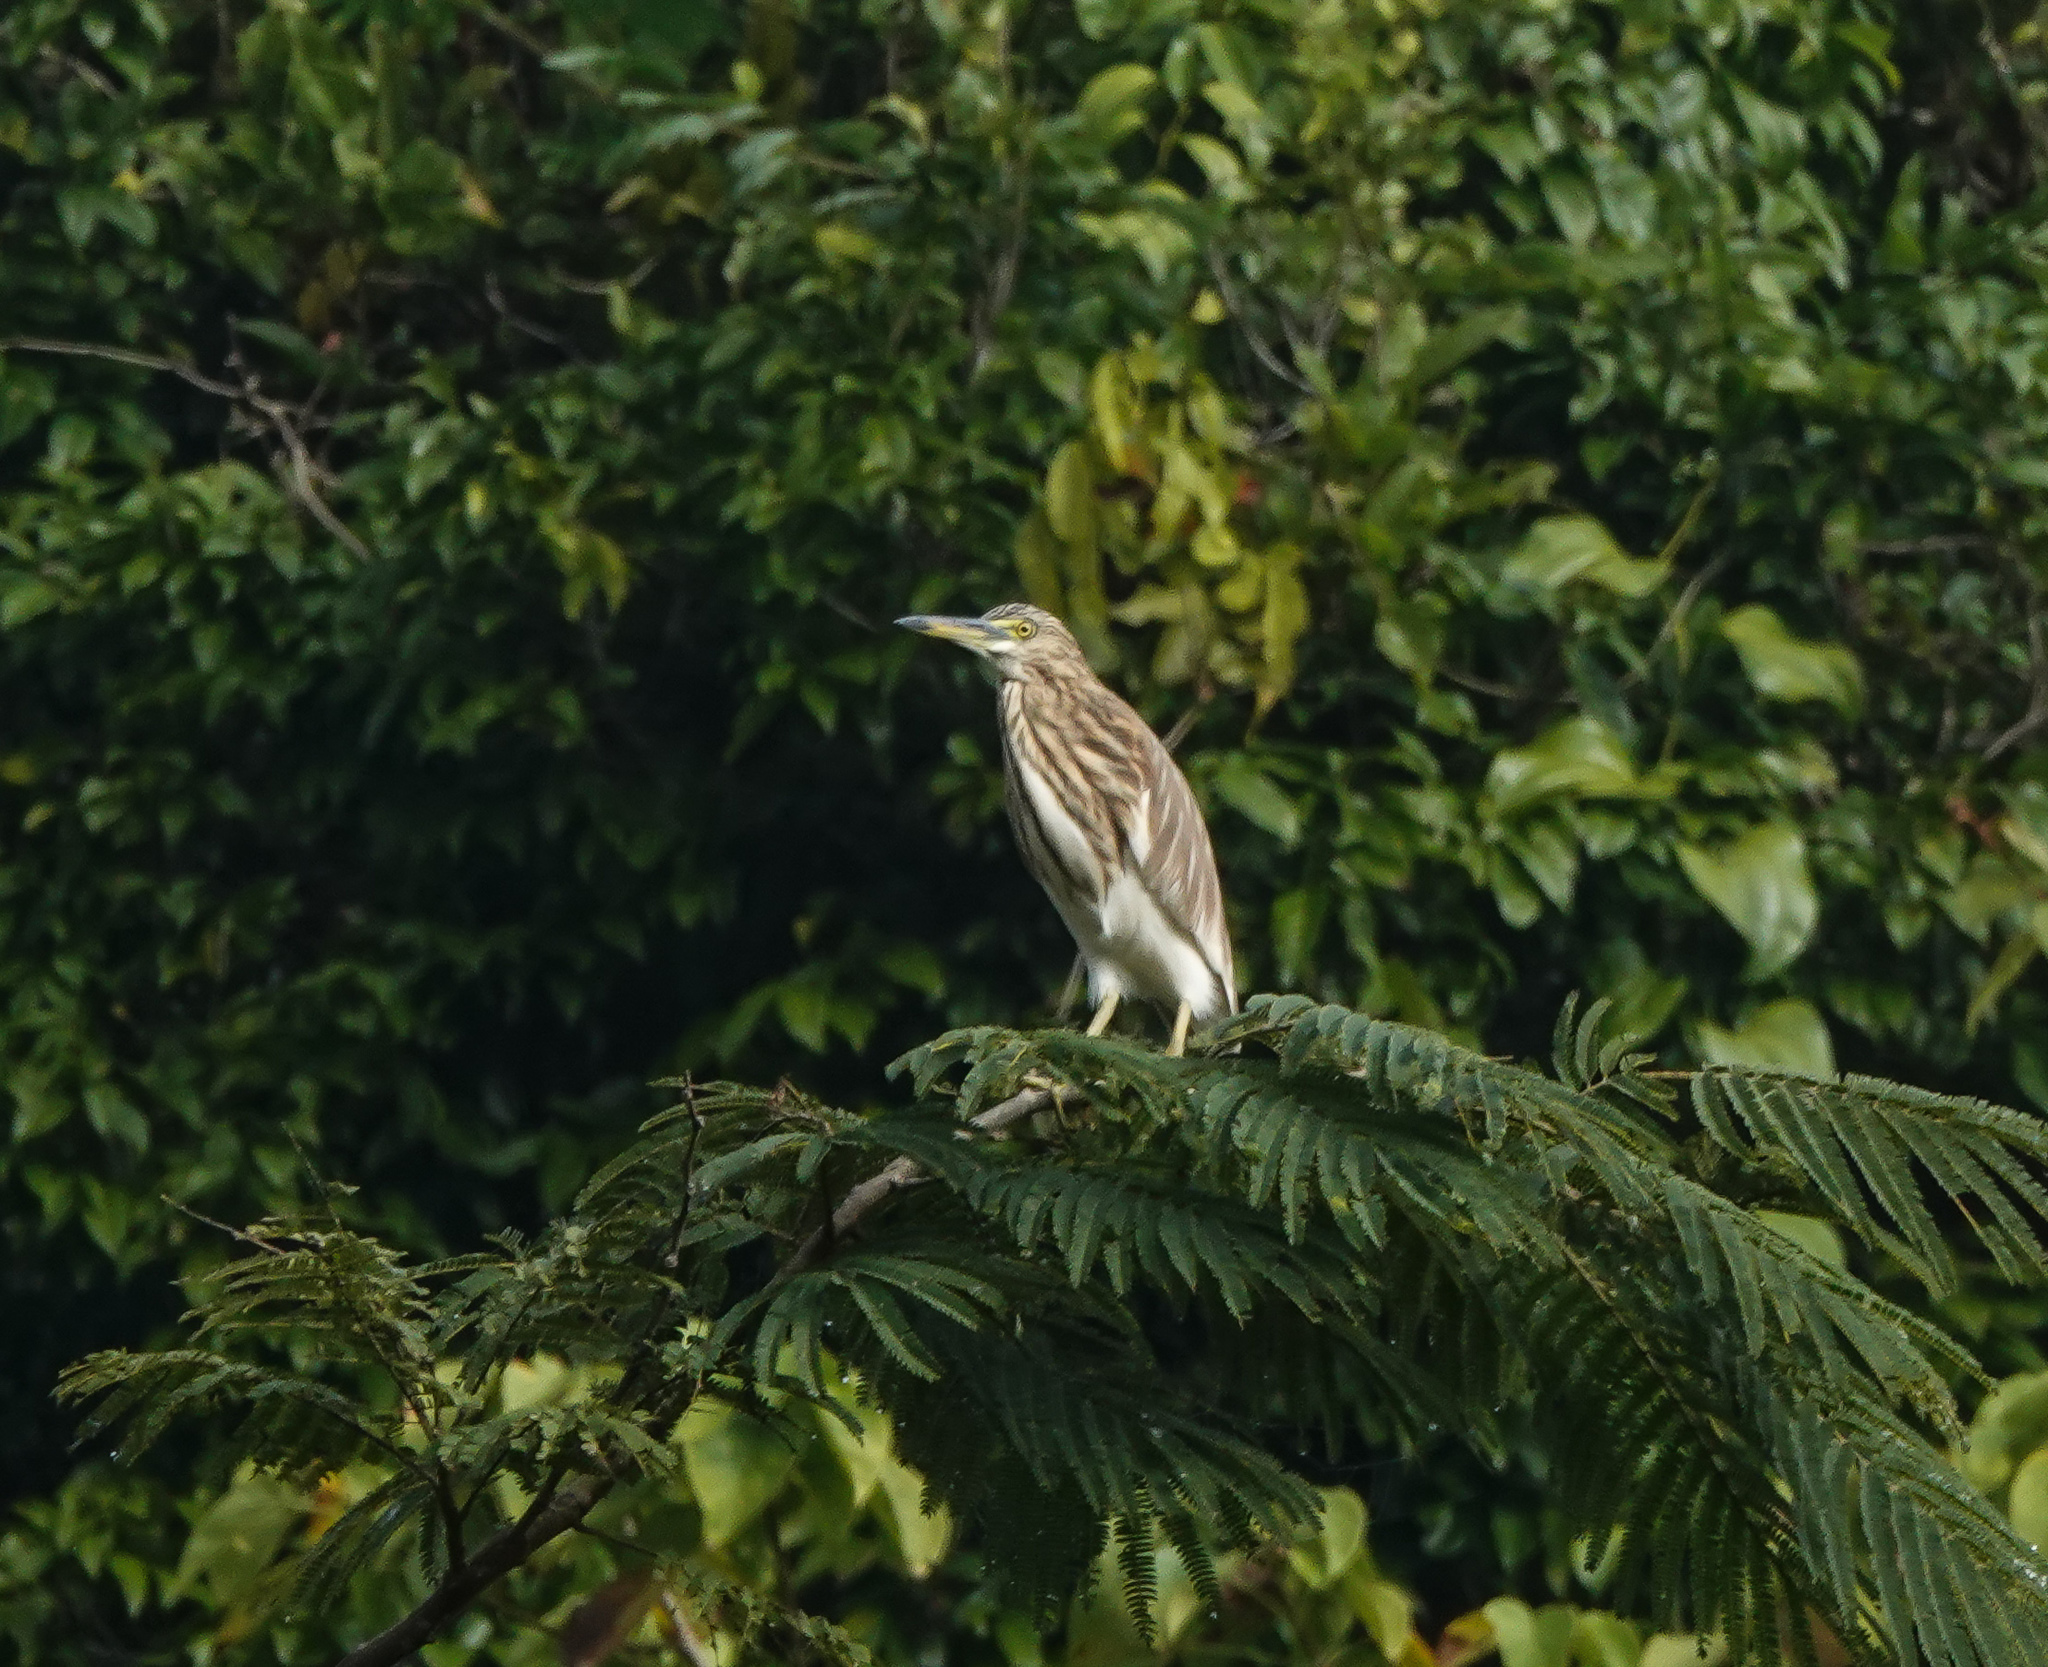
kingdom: Animalia
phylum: Chordata
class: Aves
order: Pelecaniformes
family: Ardeidae
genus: Ardeola
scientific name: Ardeola grayii
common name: Indian pond heron
